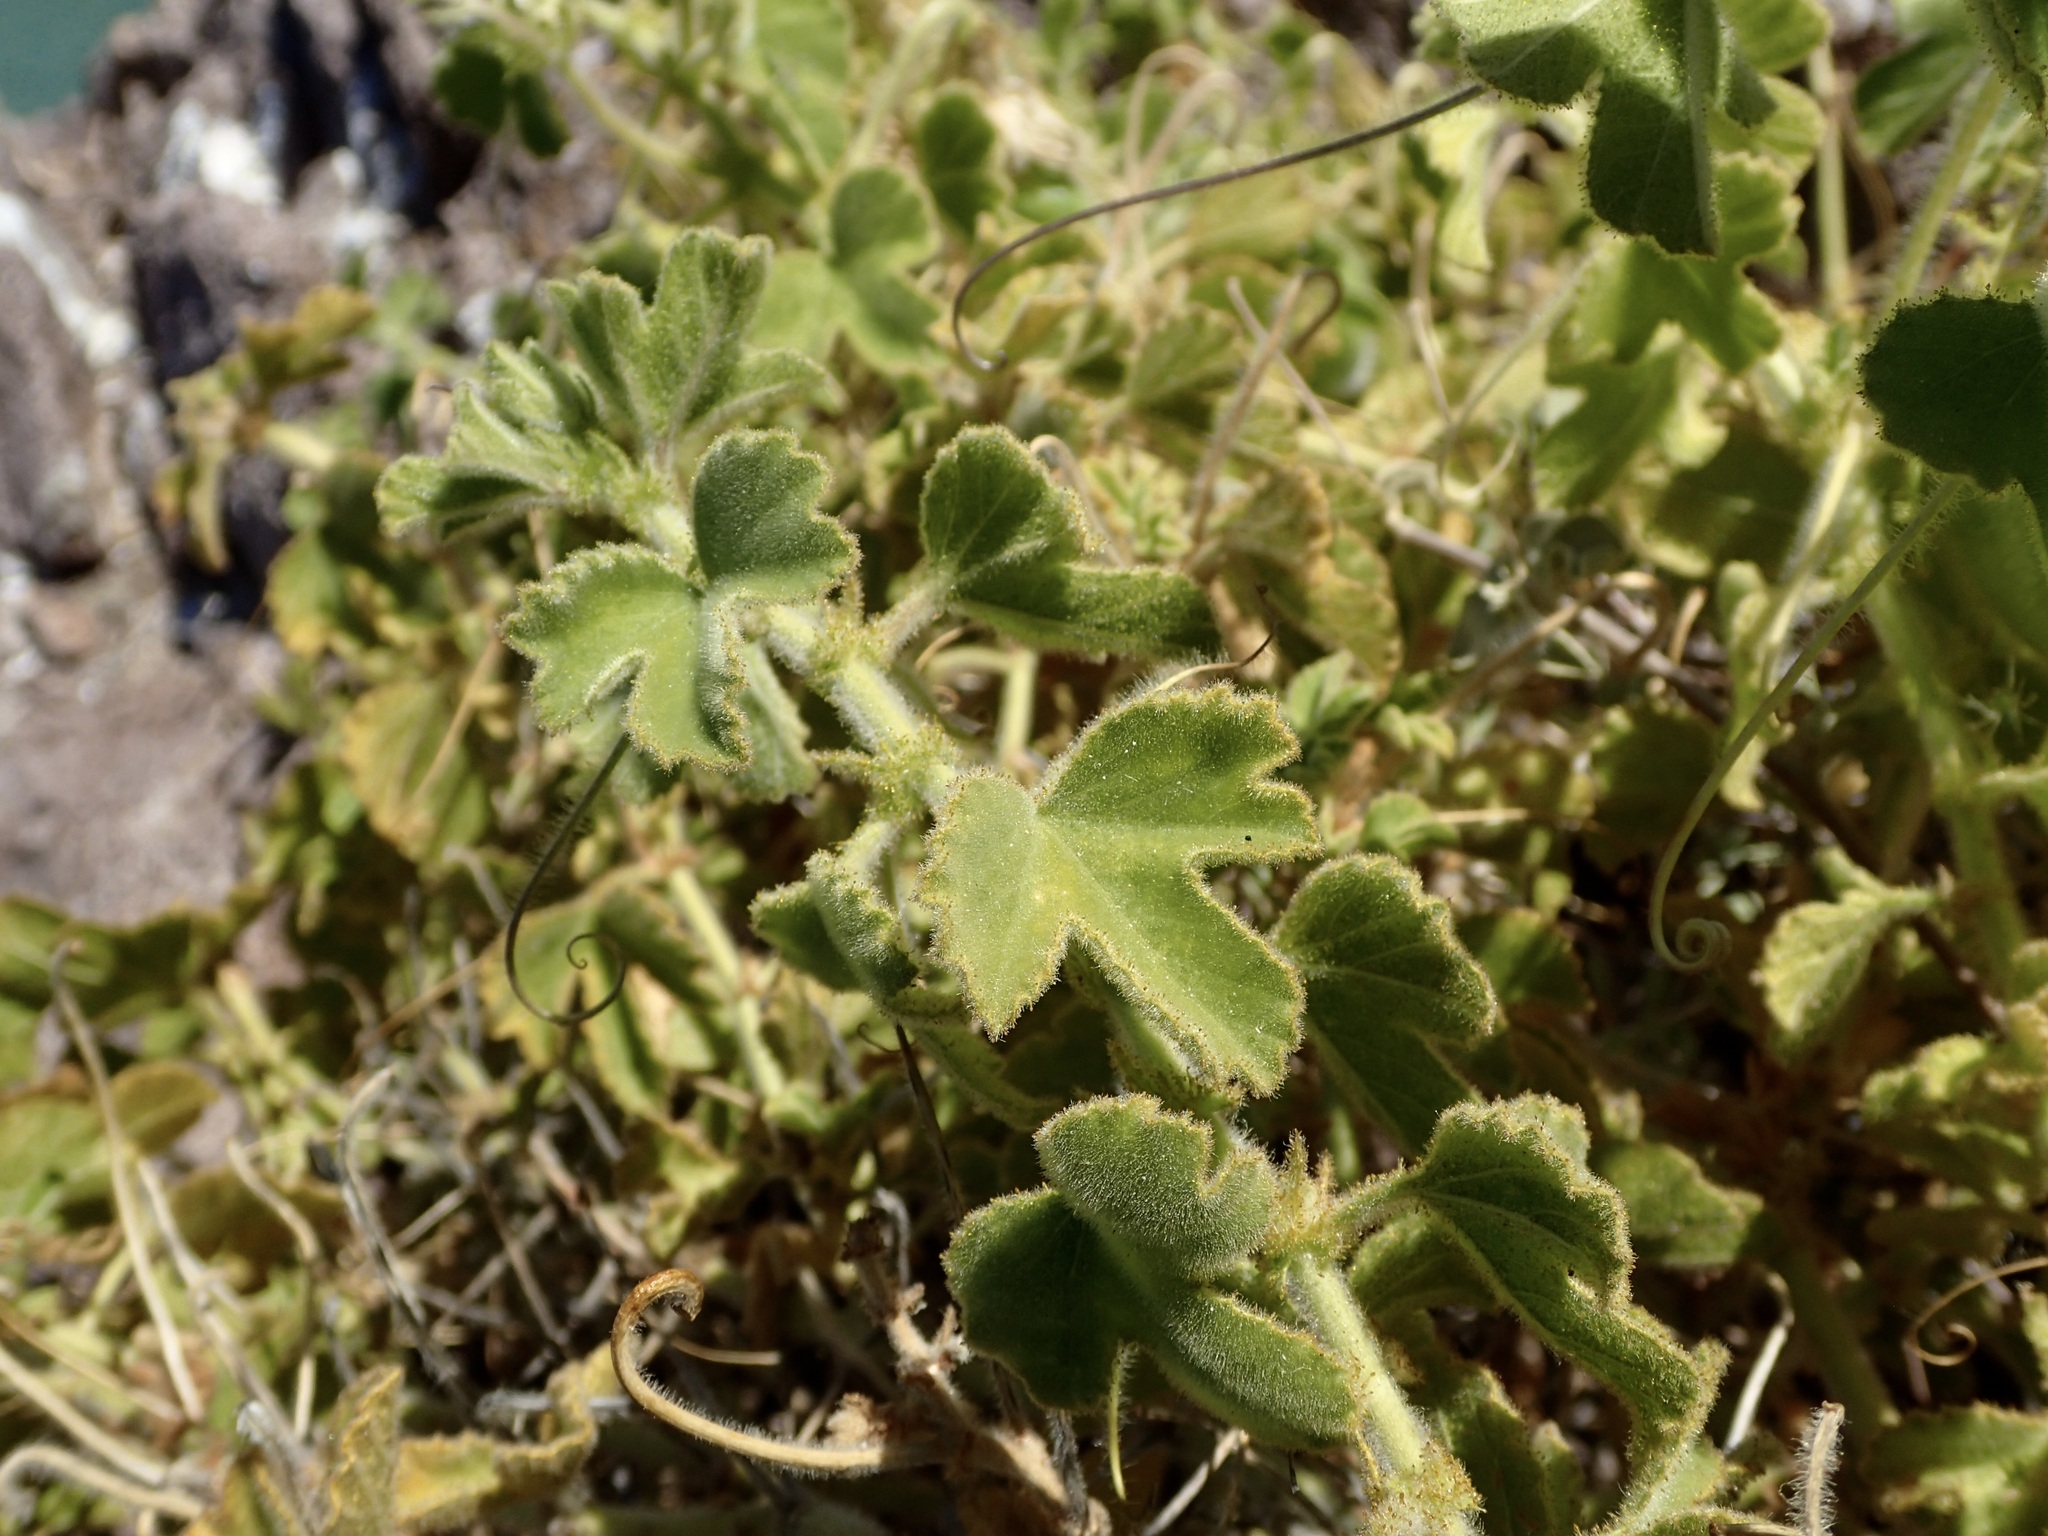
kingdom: Plantae
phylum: Tracheophyta
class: Magnoliopsida
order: Malpighiales
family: Passifloraceae
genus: Passiflora
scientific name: Passiflora palmeri
